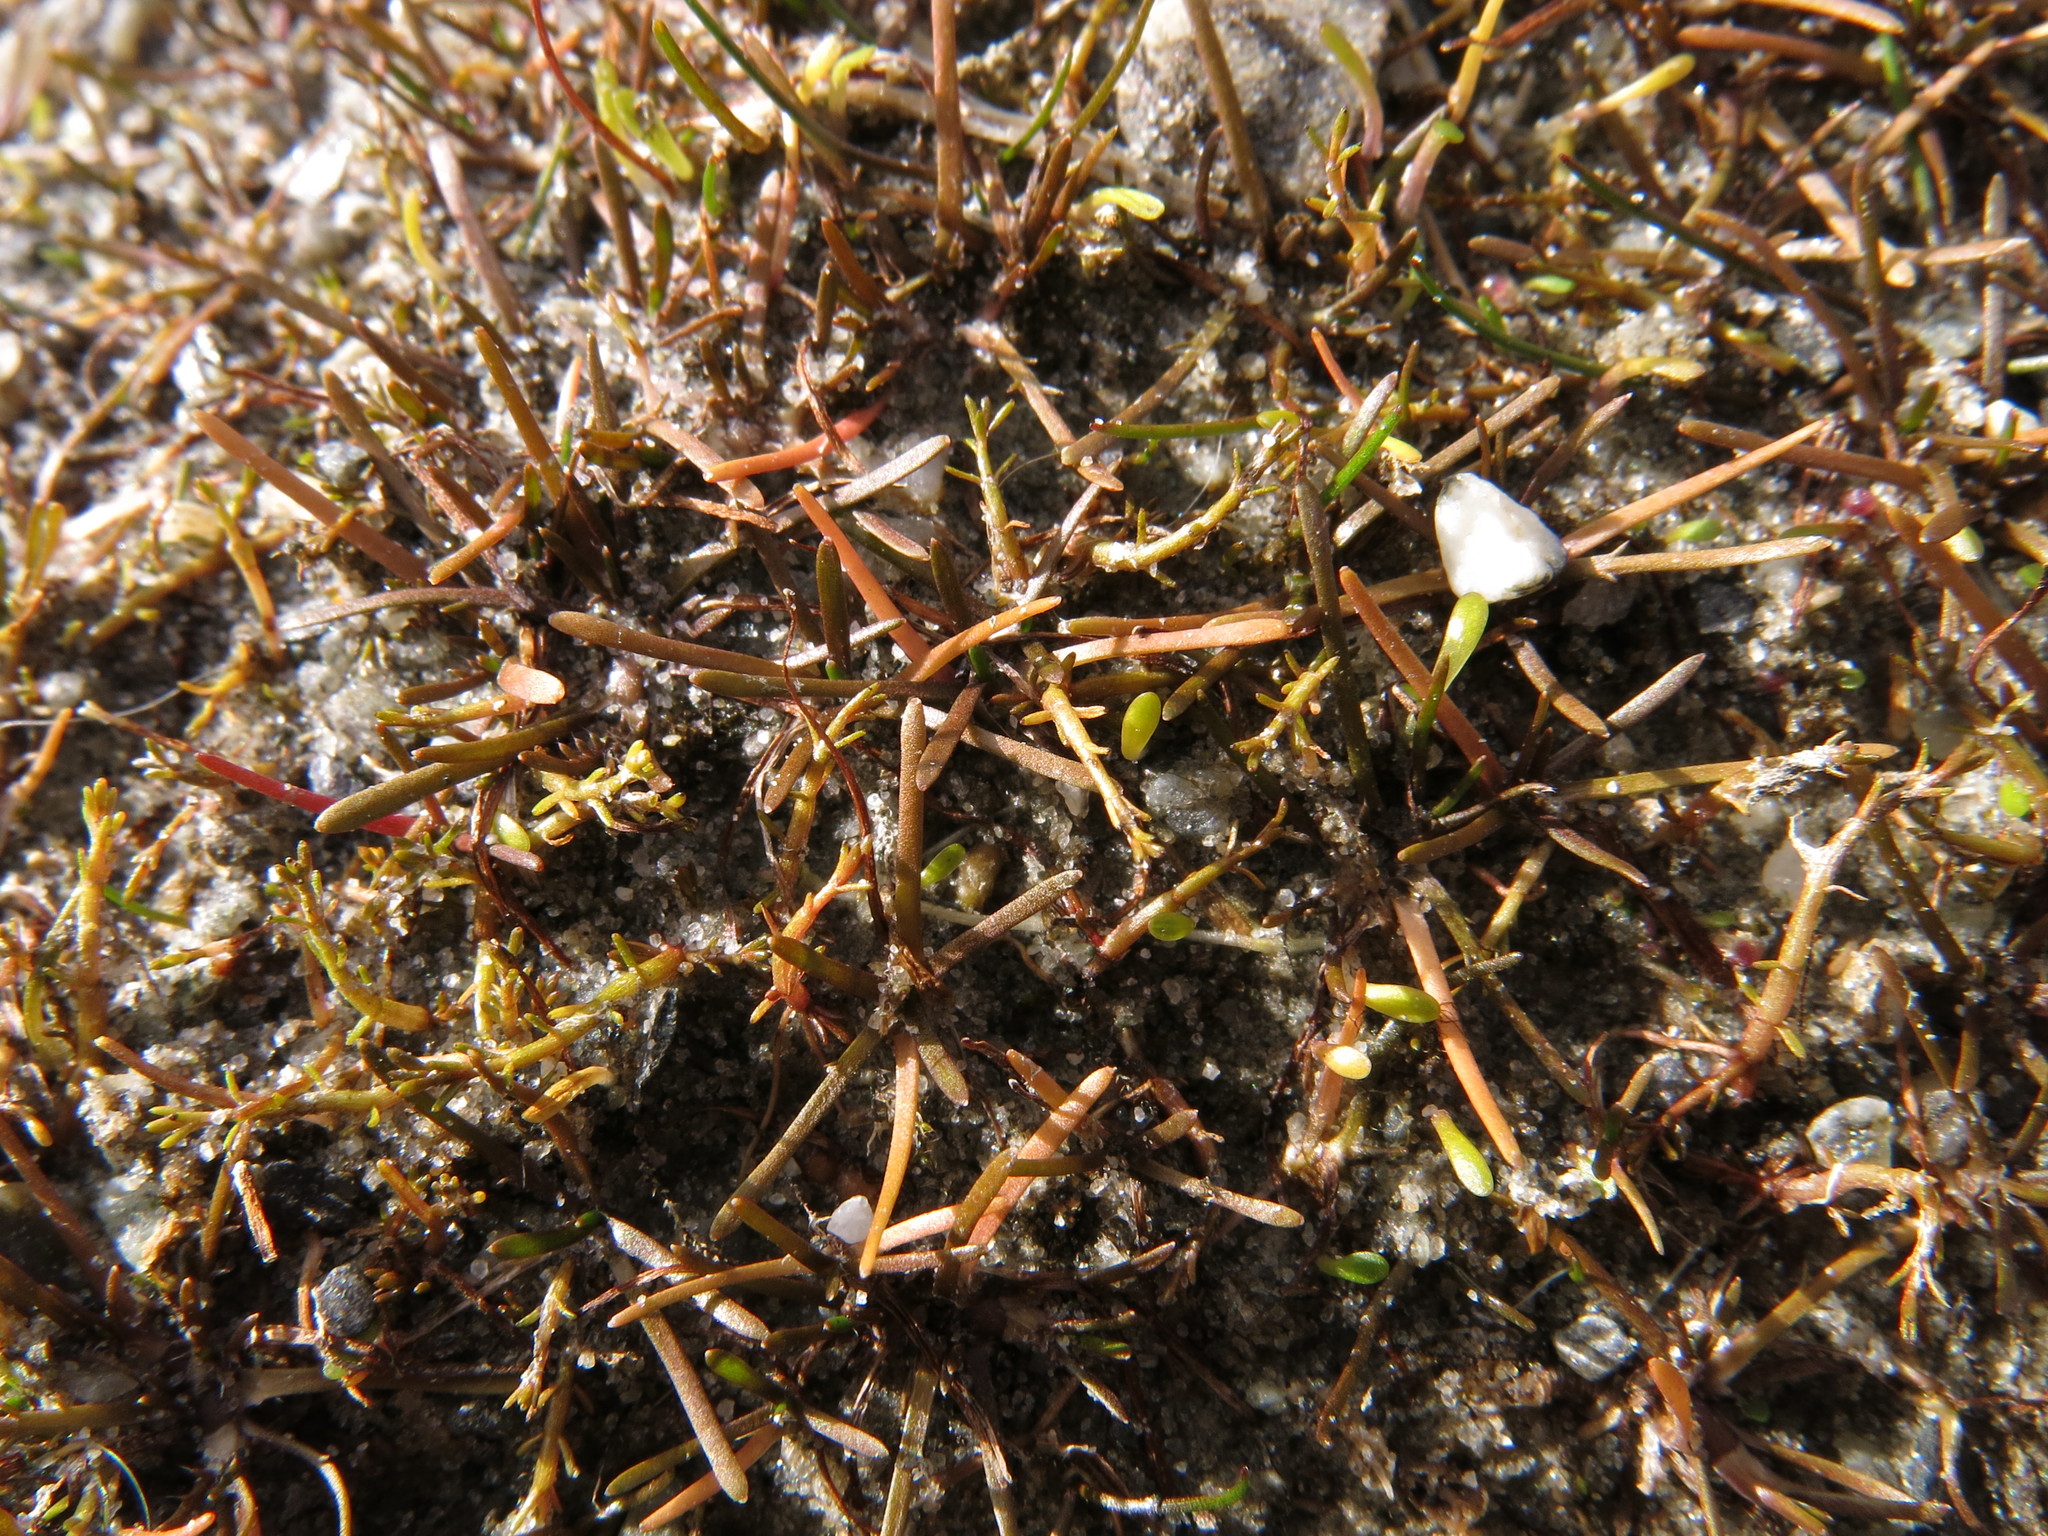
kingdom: Plantae
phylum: Tracheophyta
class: Magnoliopsida
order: Asterales
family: Asteraceae
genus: Leptinella
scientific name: Leptinella maniototo
